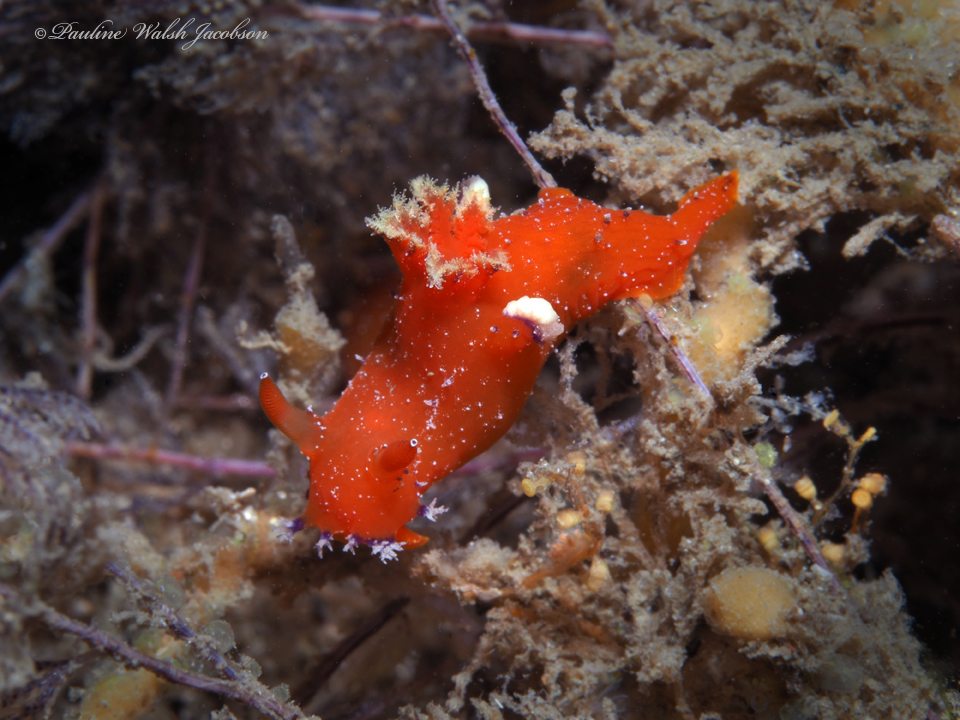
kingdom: Animalia
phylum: Mollusca
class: Gastropoda
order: Nudibranchia
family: Polyceridae
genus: Plocamopherus
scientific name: Plocamopherus lucayensis
